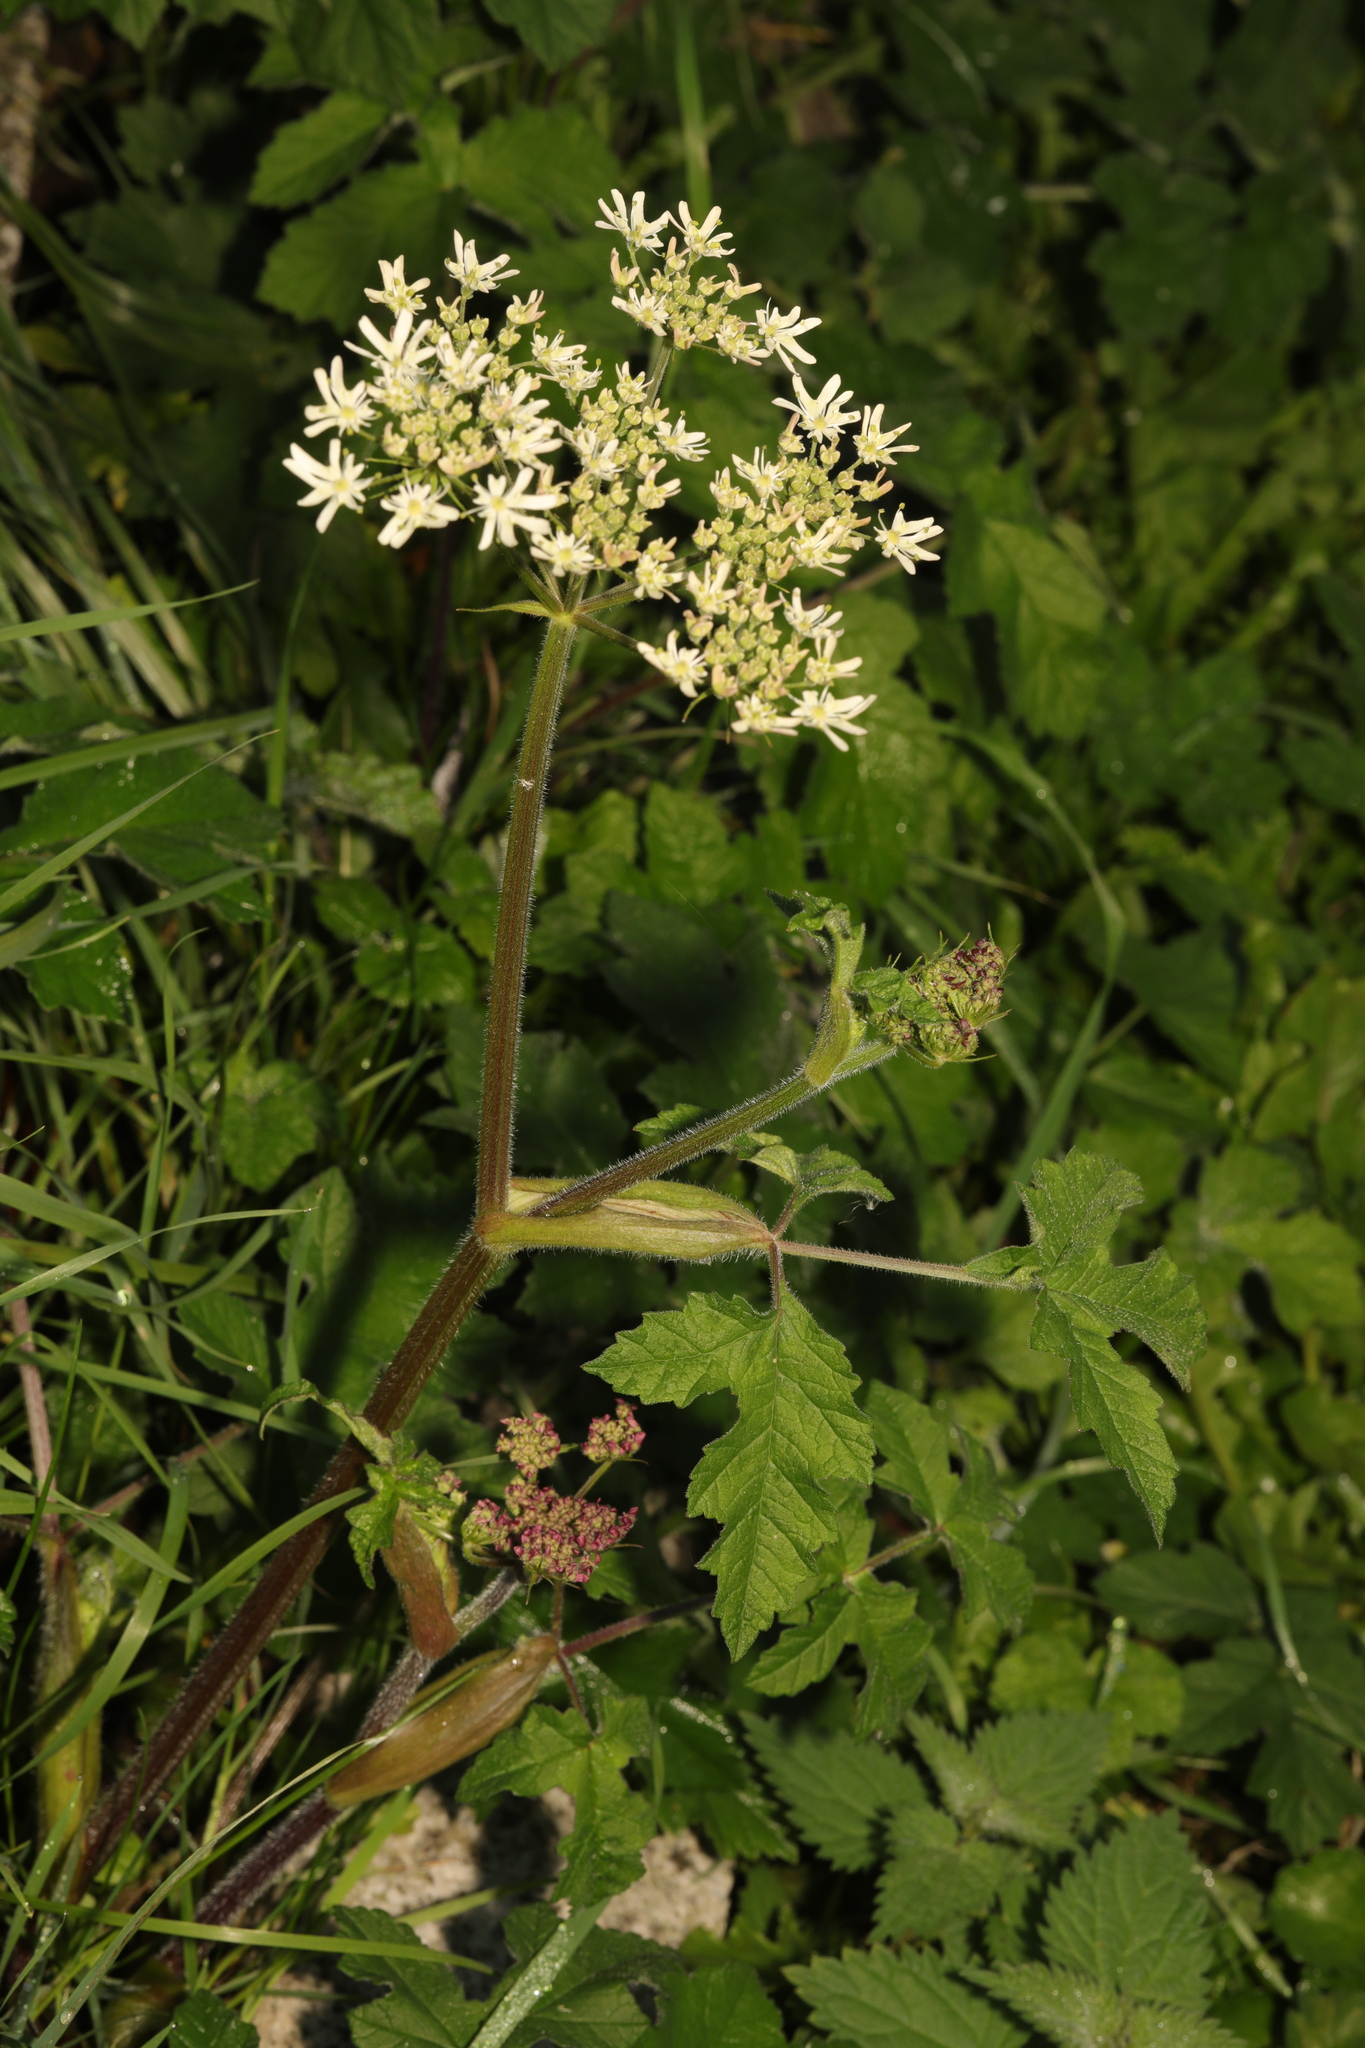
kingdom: Plantae
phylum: Tracheophyta
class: Magnoliopsida
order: Apiales
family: Apiaceae
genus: Heracleum
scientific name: Heracleum sphondylium
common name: Hogweed
